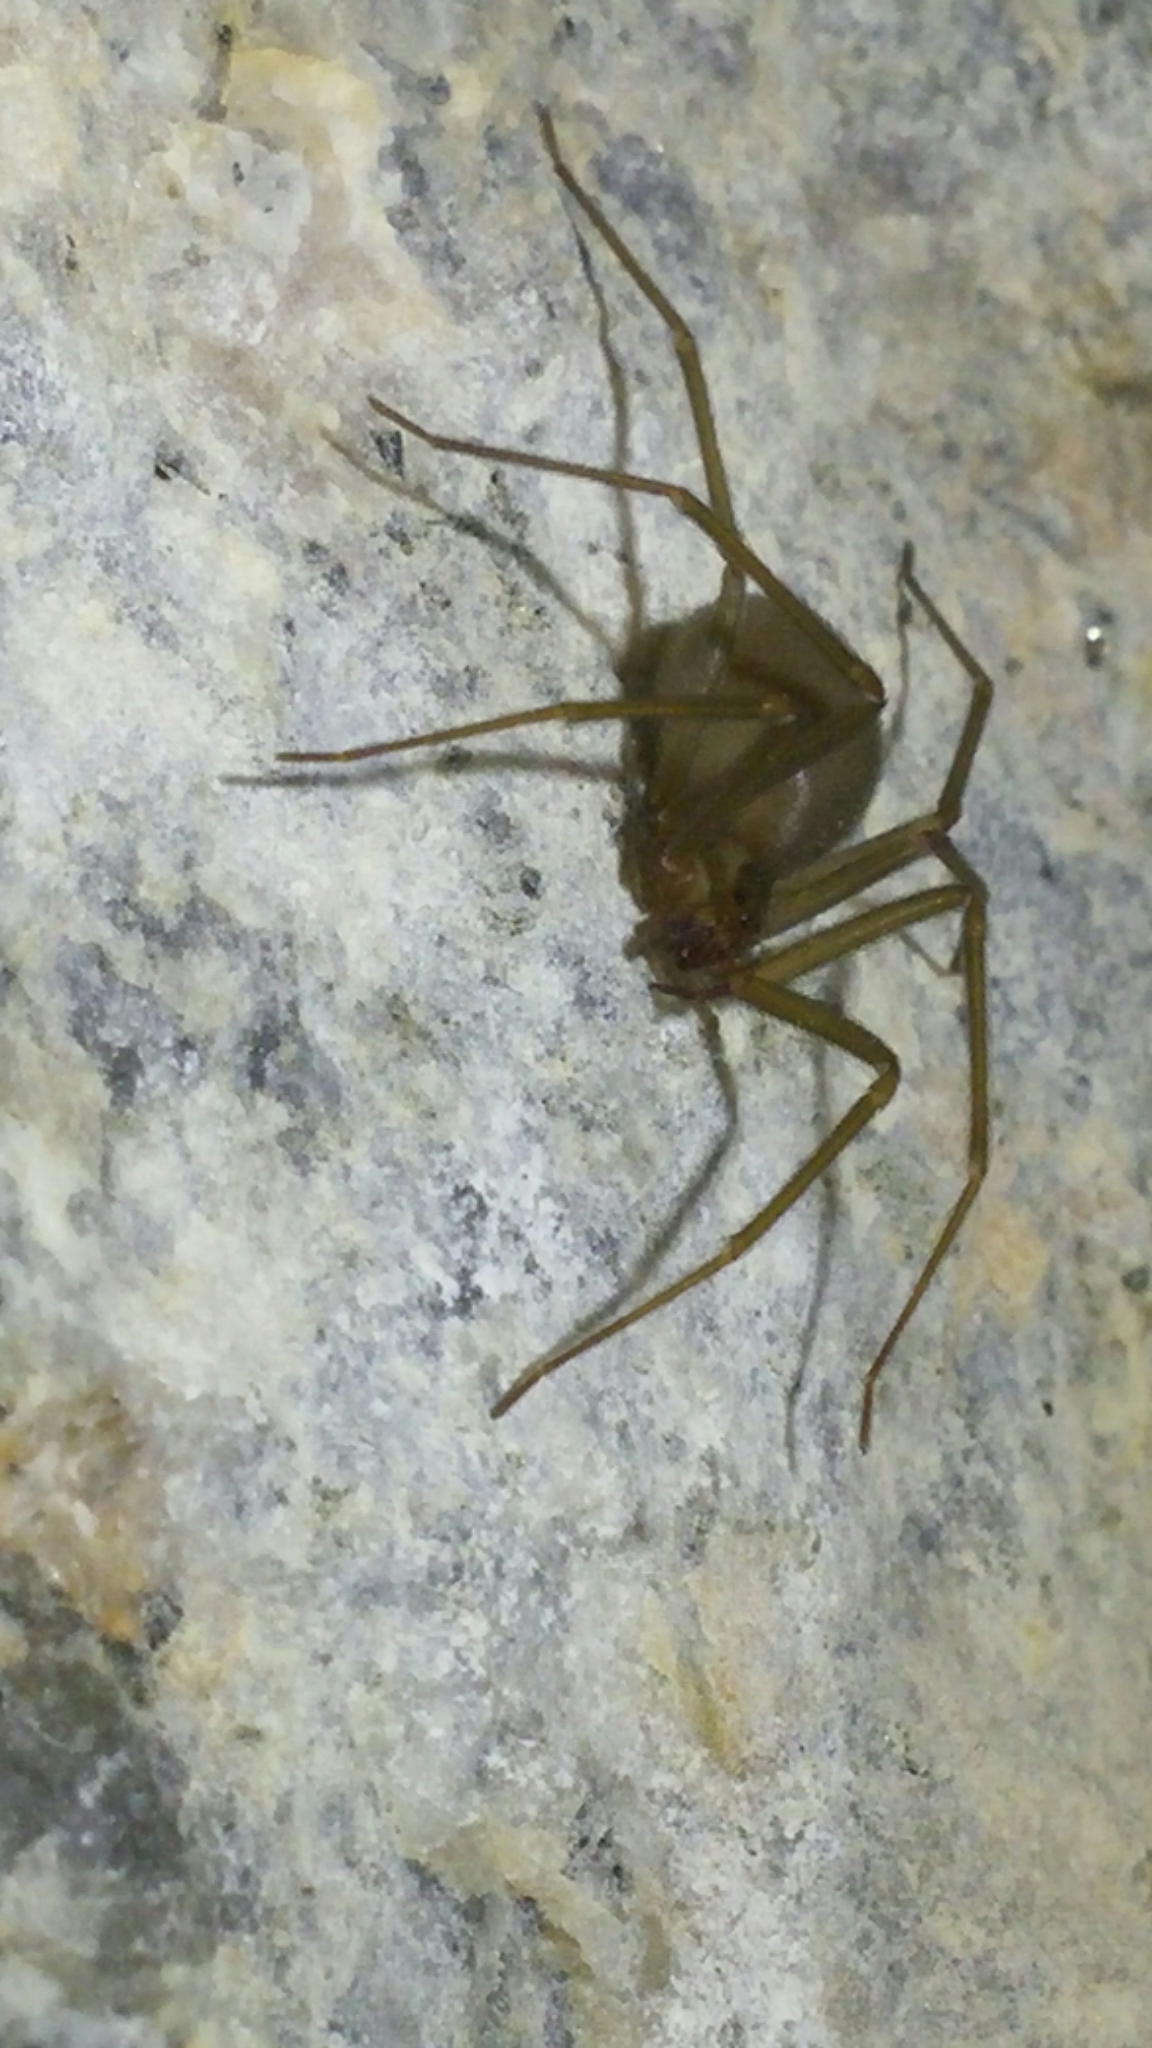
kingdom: Animalia
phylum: Arthropoda
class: Arachnida
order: Araneae
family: Sicariidae
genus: Loxosceles
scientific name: Loxosceles baja
